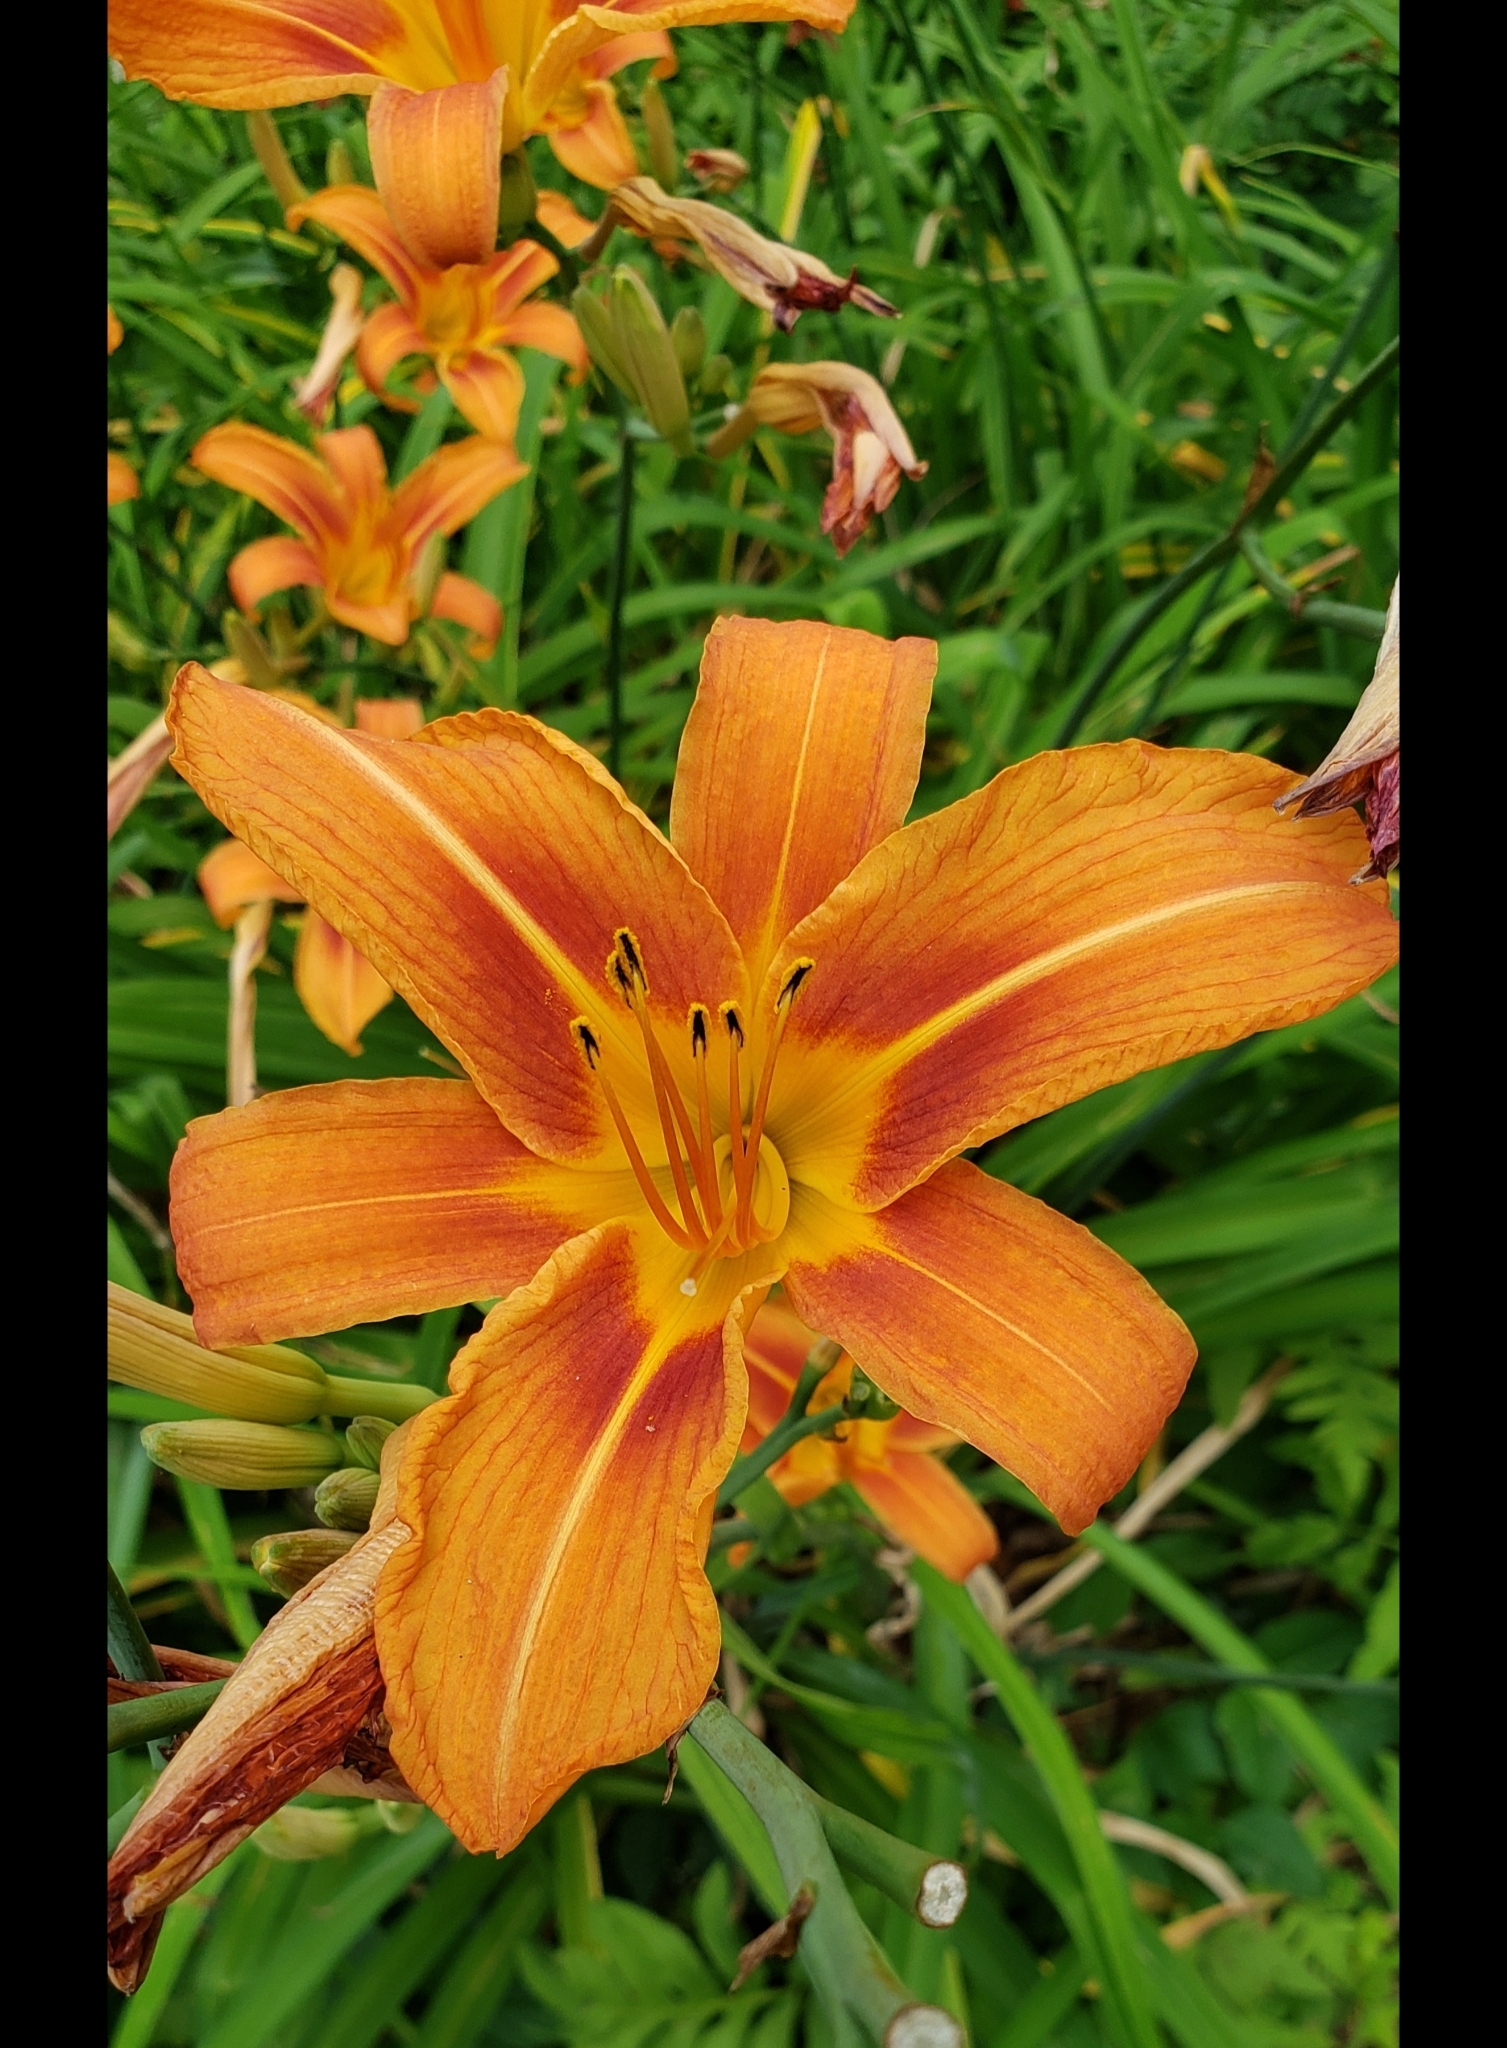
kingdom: Plantae
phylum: Tracheophyta
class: Liliopsida
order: Asparagales
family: Asphodelaceae
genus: Hemerocallis
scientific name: Hemerocallis fulva
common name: Orange day-lily
